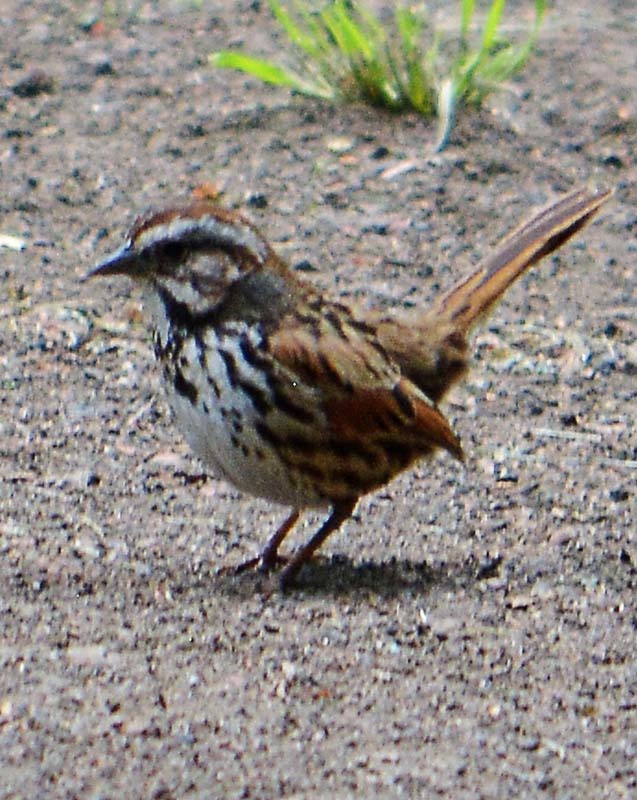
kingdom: Animalia
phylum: Chordata
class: Aves
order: Passeriformes
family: Passerellidae
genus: Melospiza
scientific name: Melospiza melodia
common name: Song sparrow
